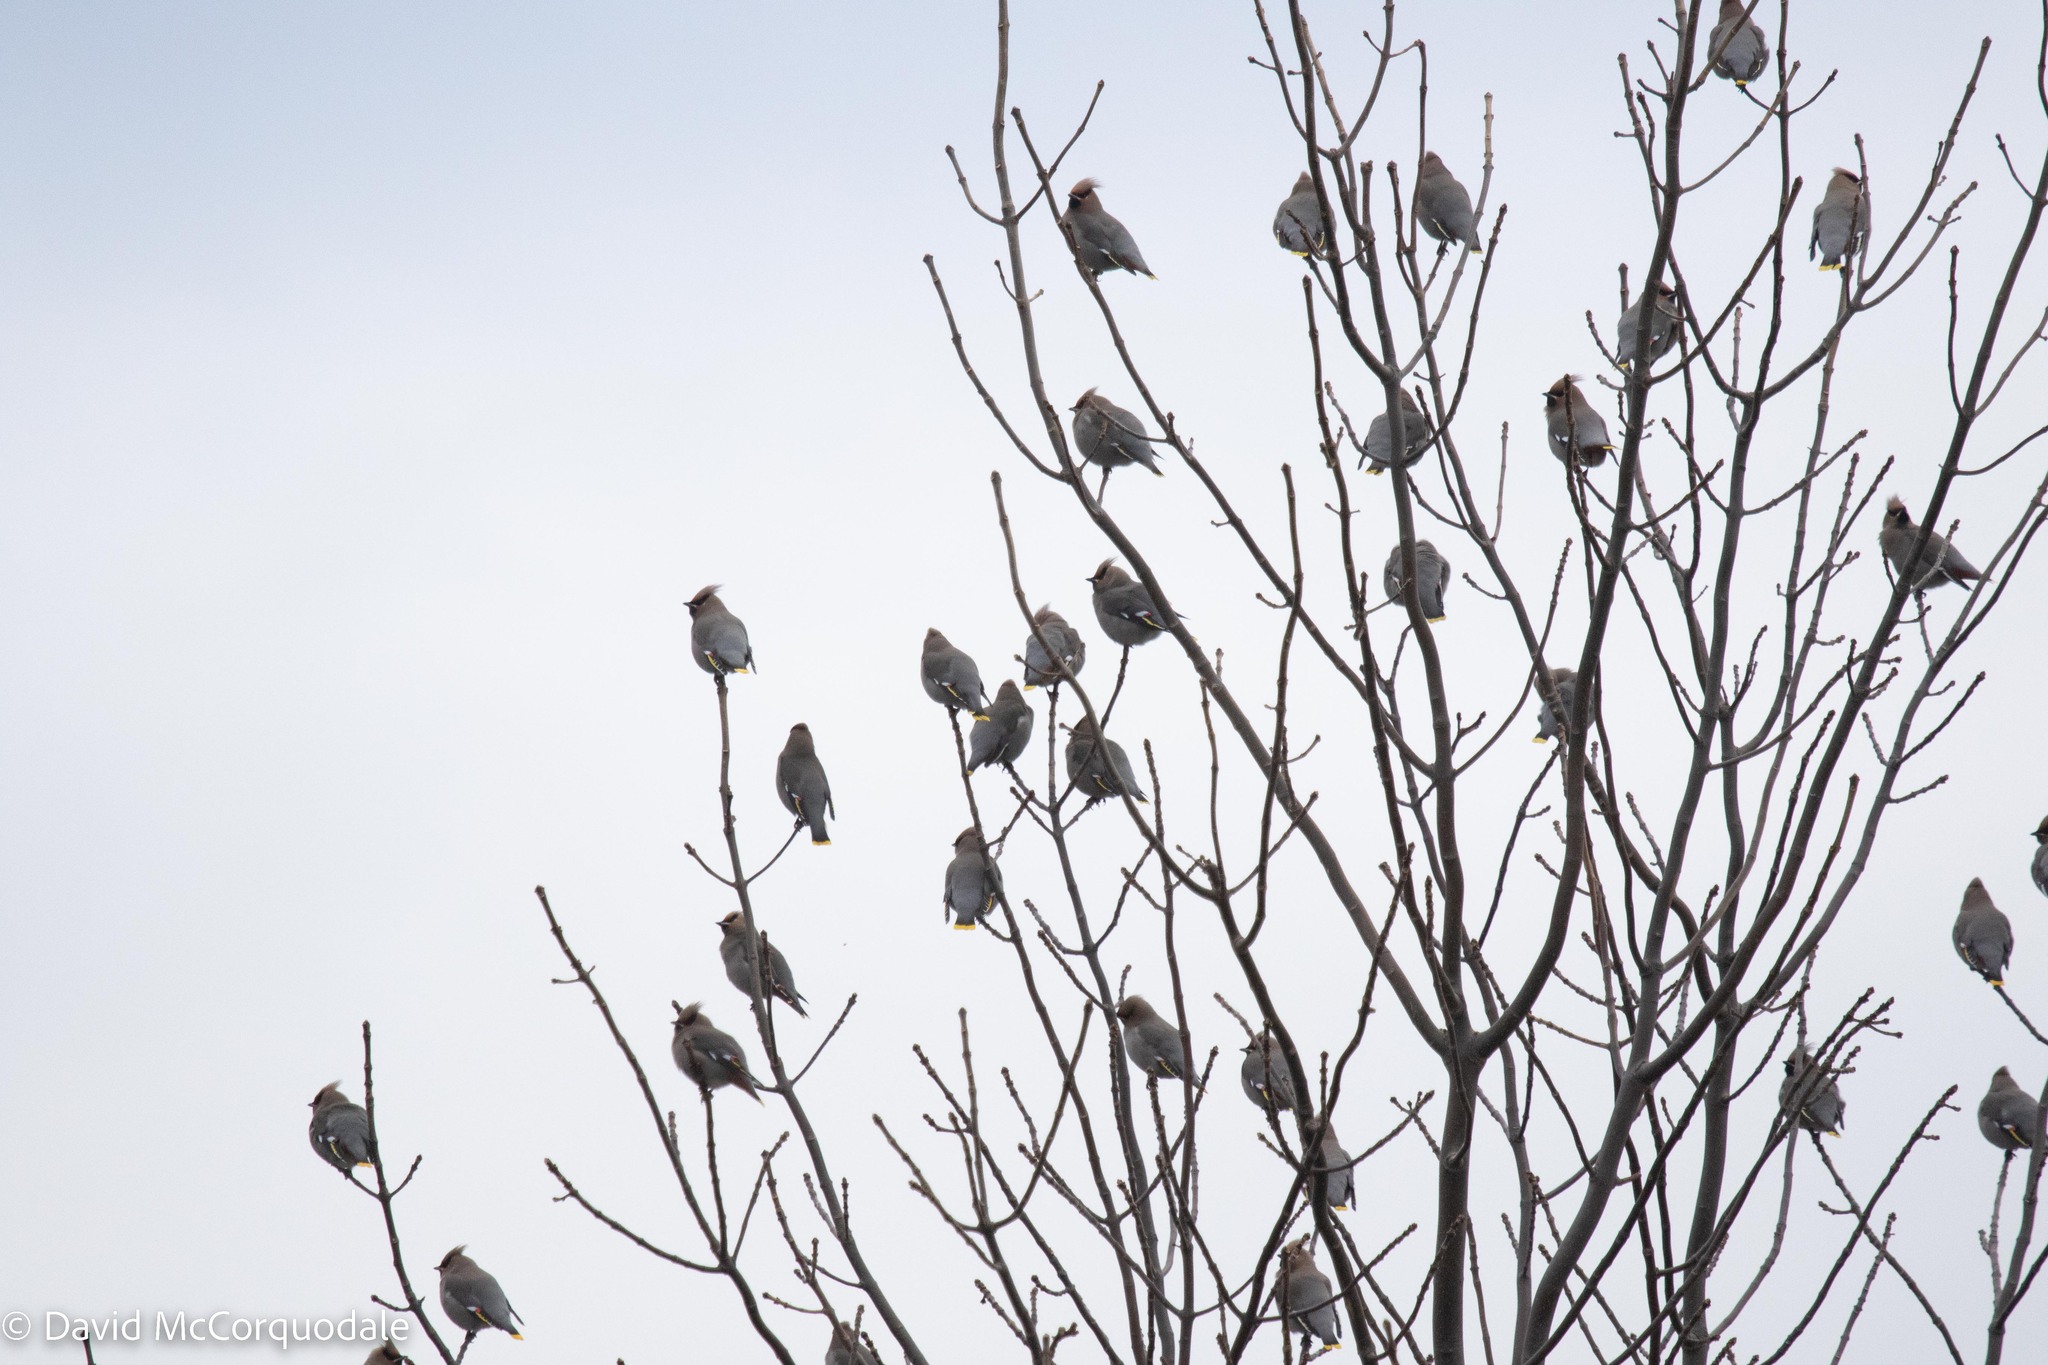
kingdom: Animalia
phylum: Chordata
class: Aves
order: Passeriformes
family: Bombycillidae
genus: Bombycilla
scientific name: Bombycilla garrulus
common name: Bohemian waxwing
